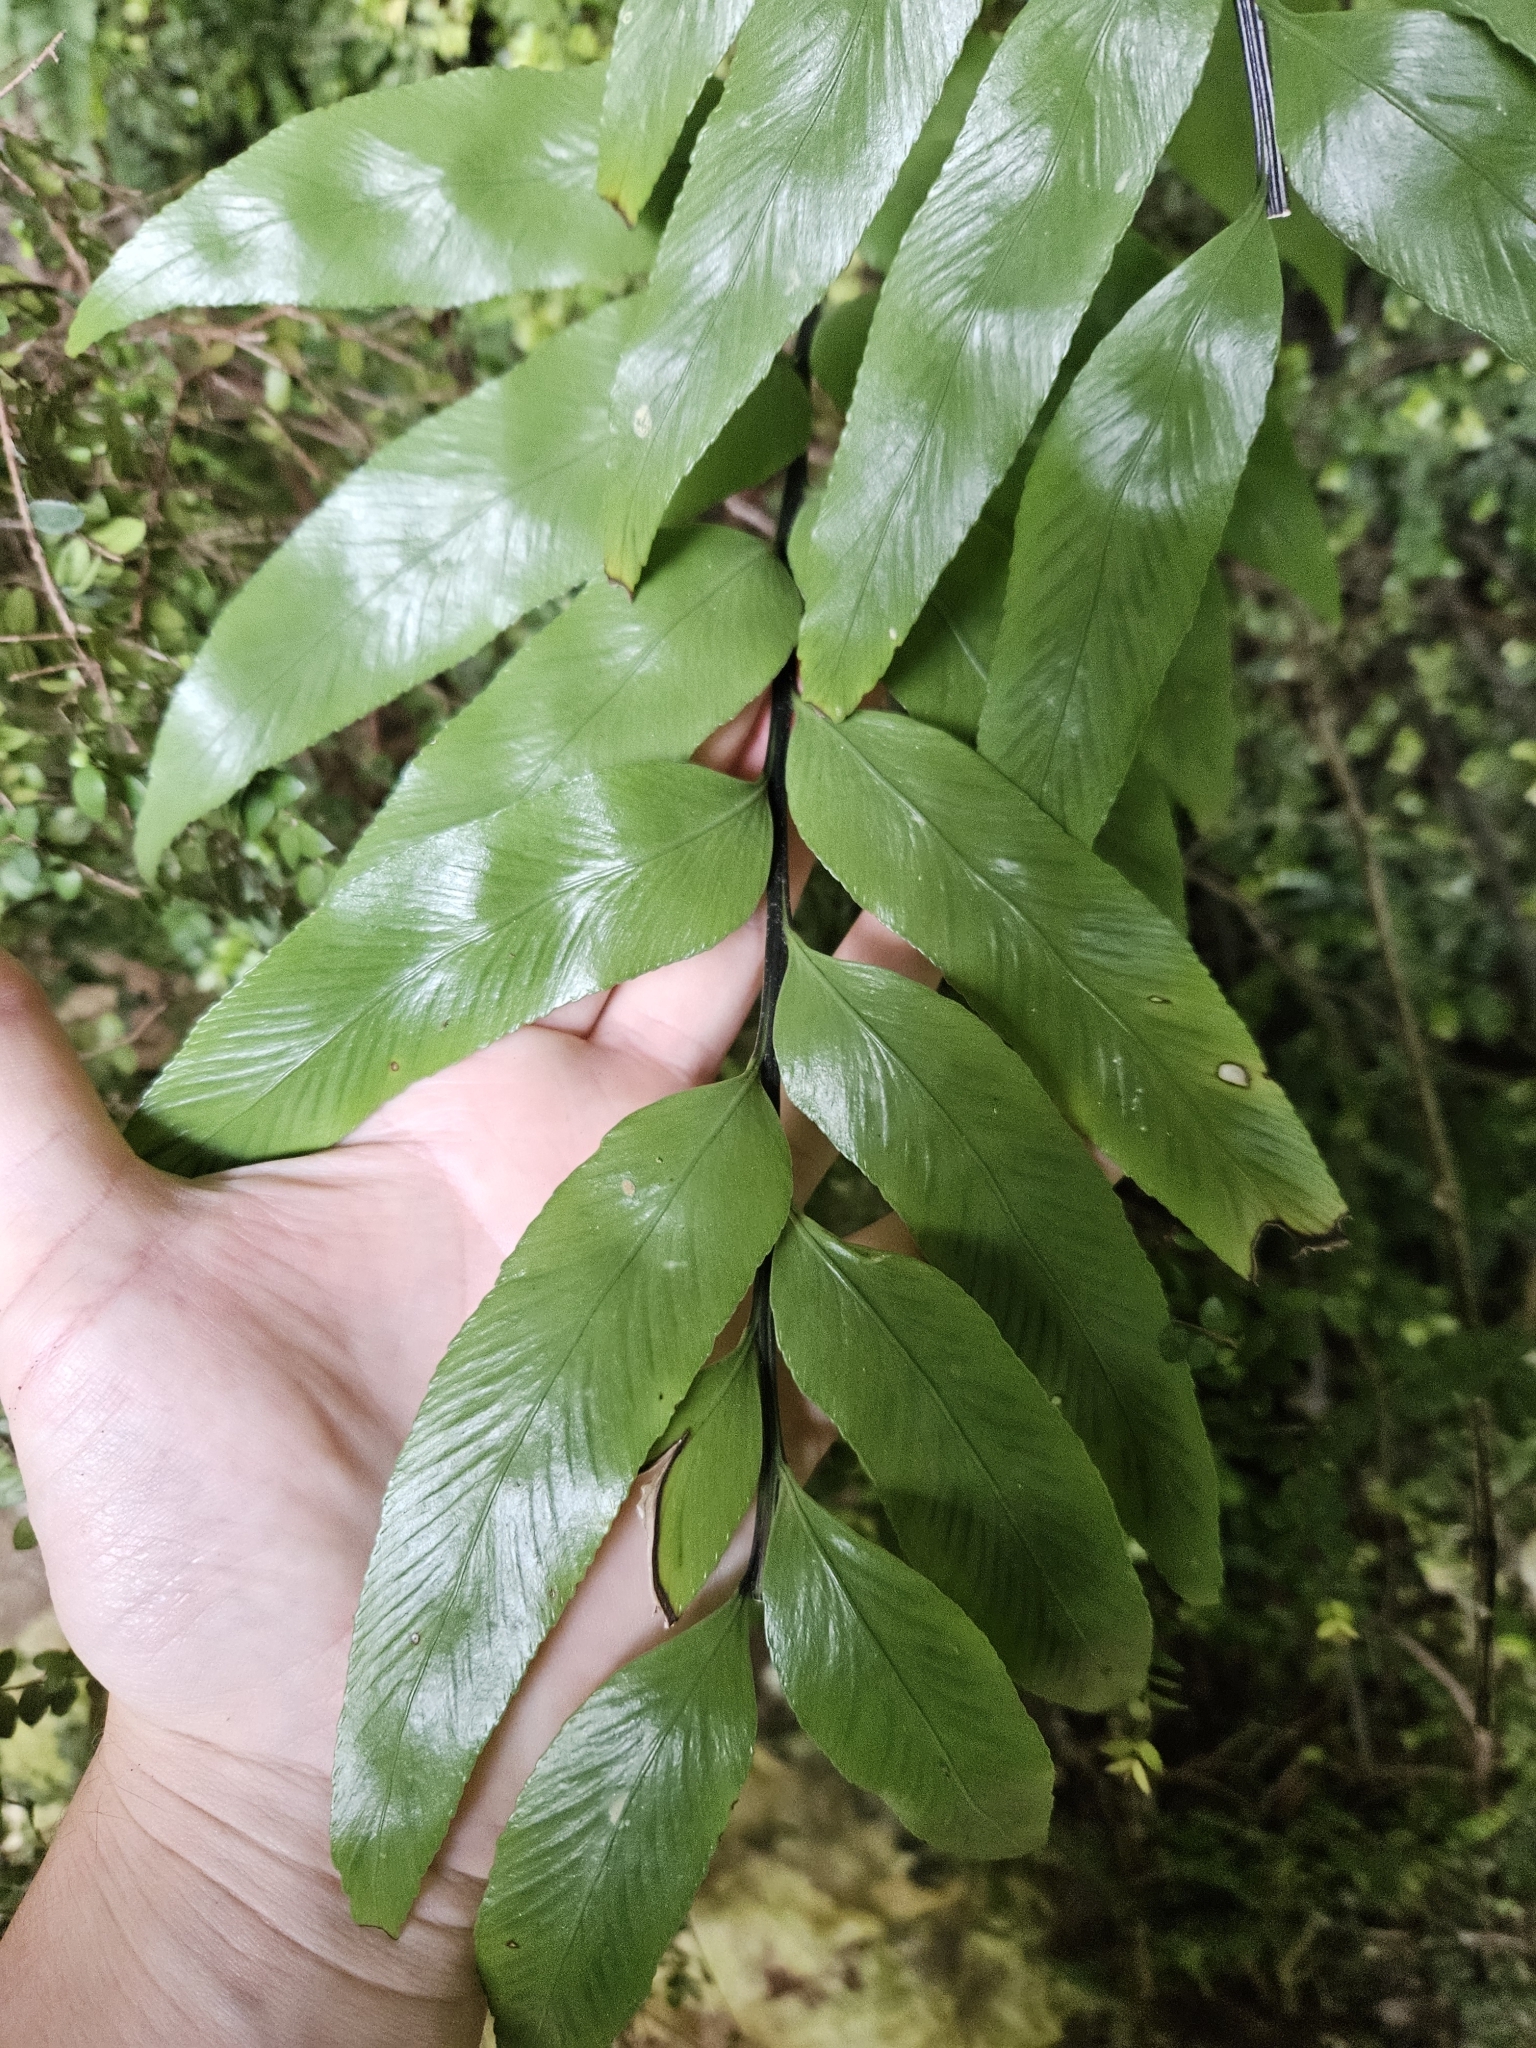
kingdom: Plantae
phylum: Tracheophyta
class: Polypodiopsida
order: Polypodiales
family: Aspleniaceae
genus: Asplenium
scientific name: Asplenium lepidotum
